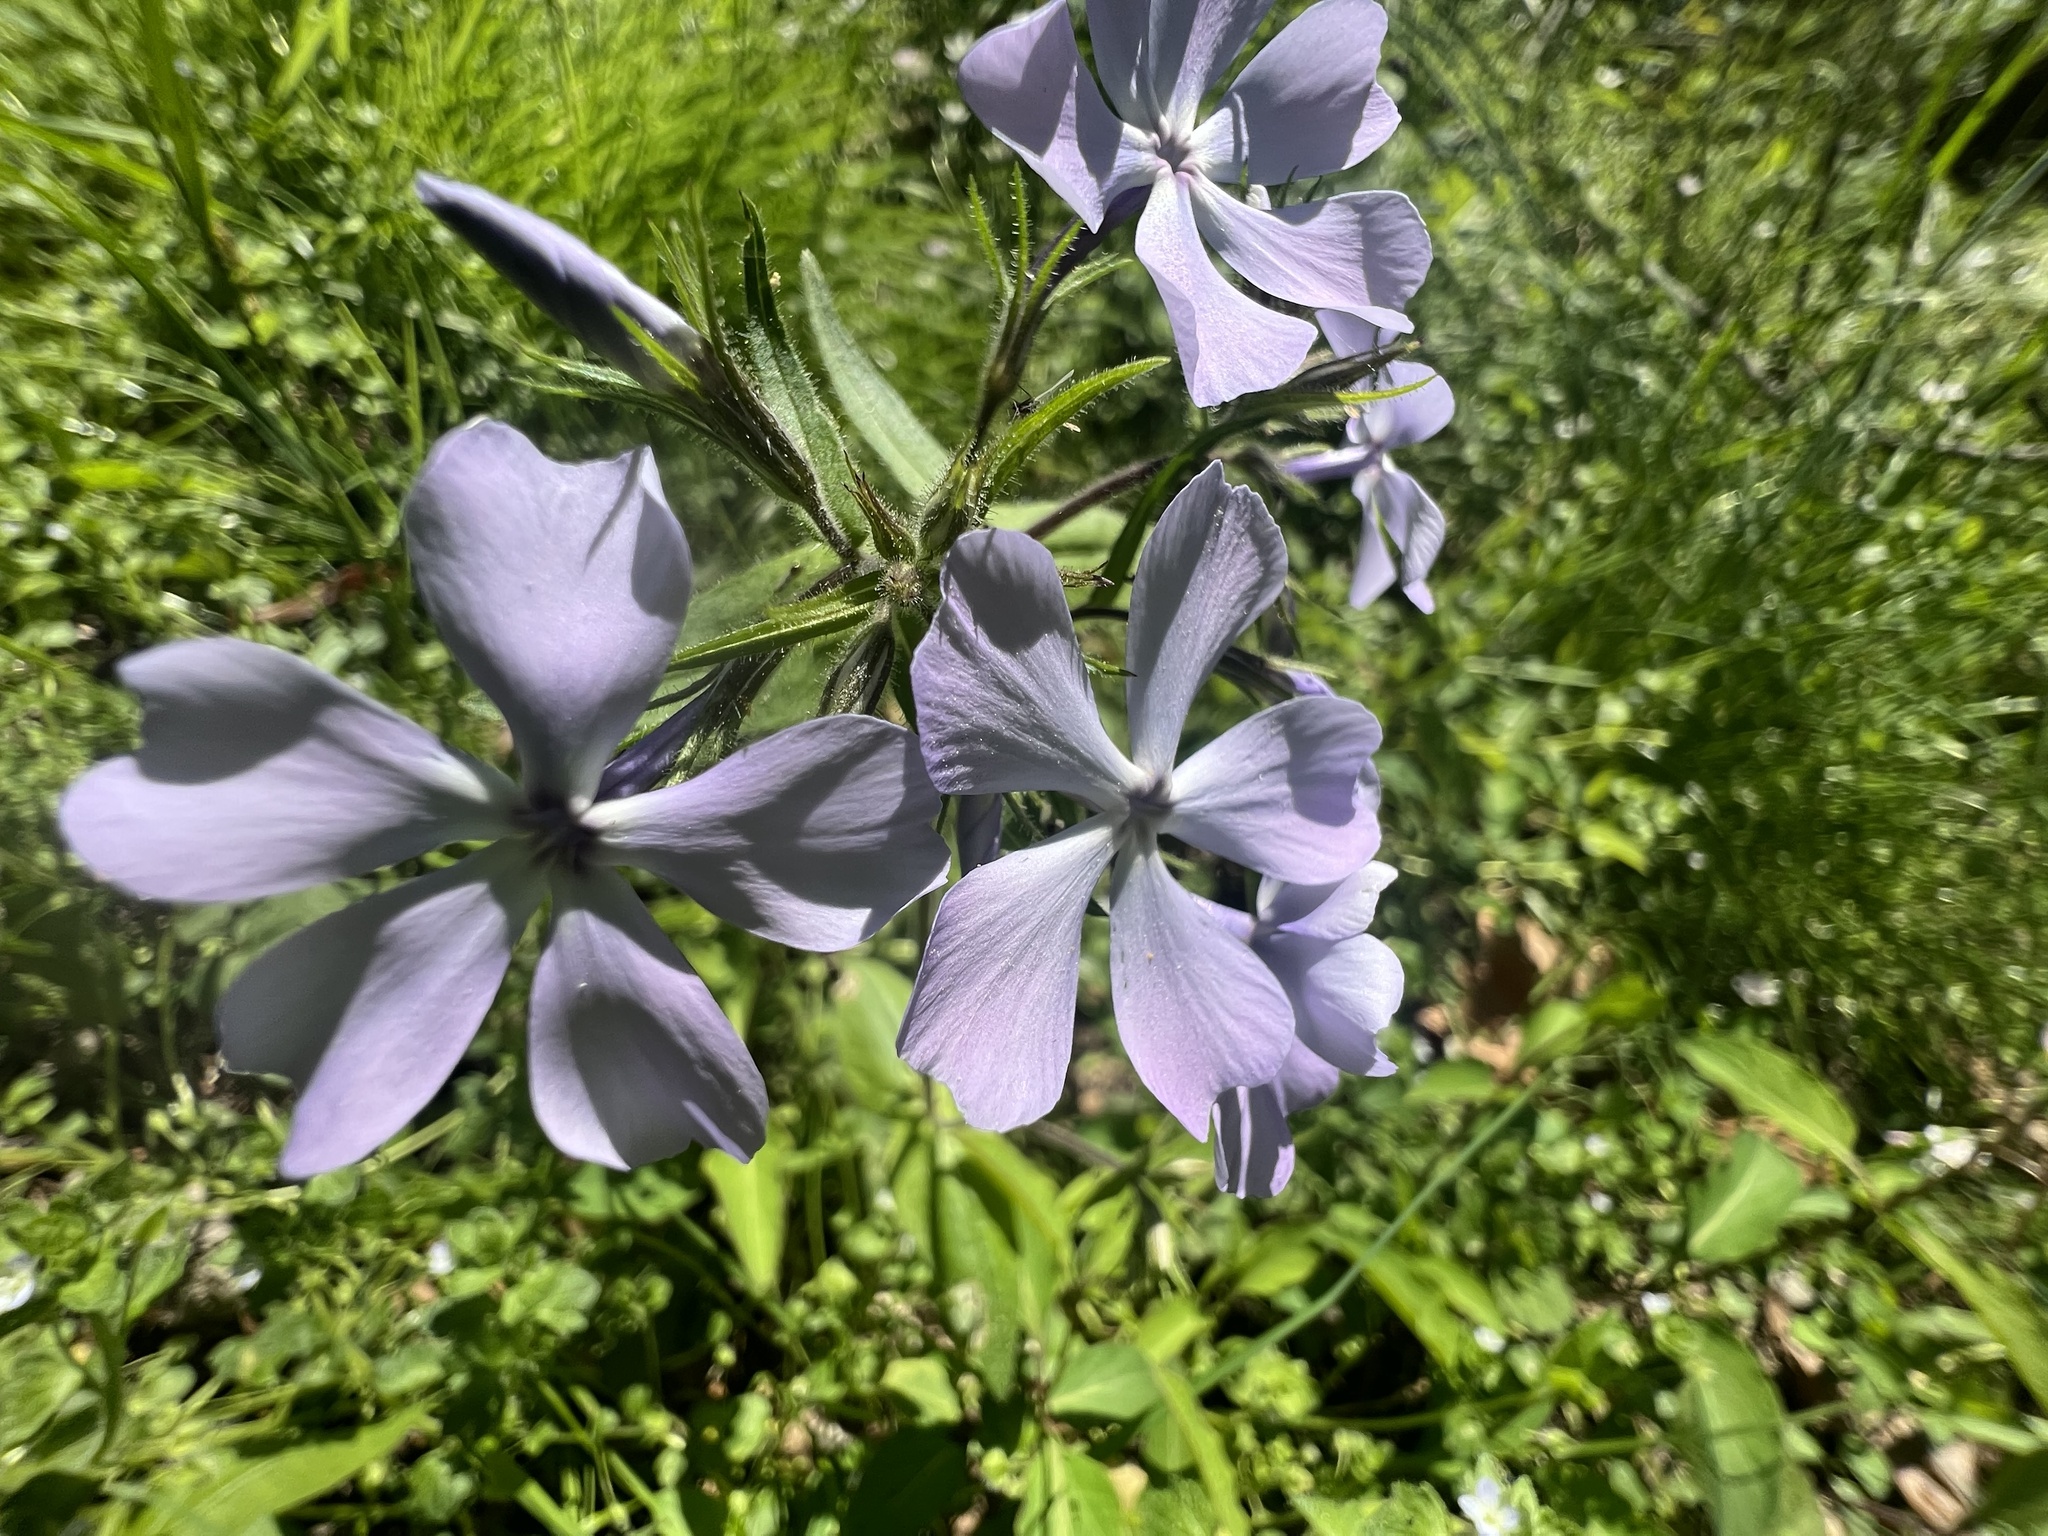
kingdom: Plantae
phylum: Tracheophyta
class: Magnoliopsida
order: Ericales
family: Polemoniaceae
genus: Phlox
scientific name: Phlox divaricata
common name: Blue phlox
